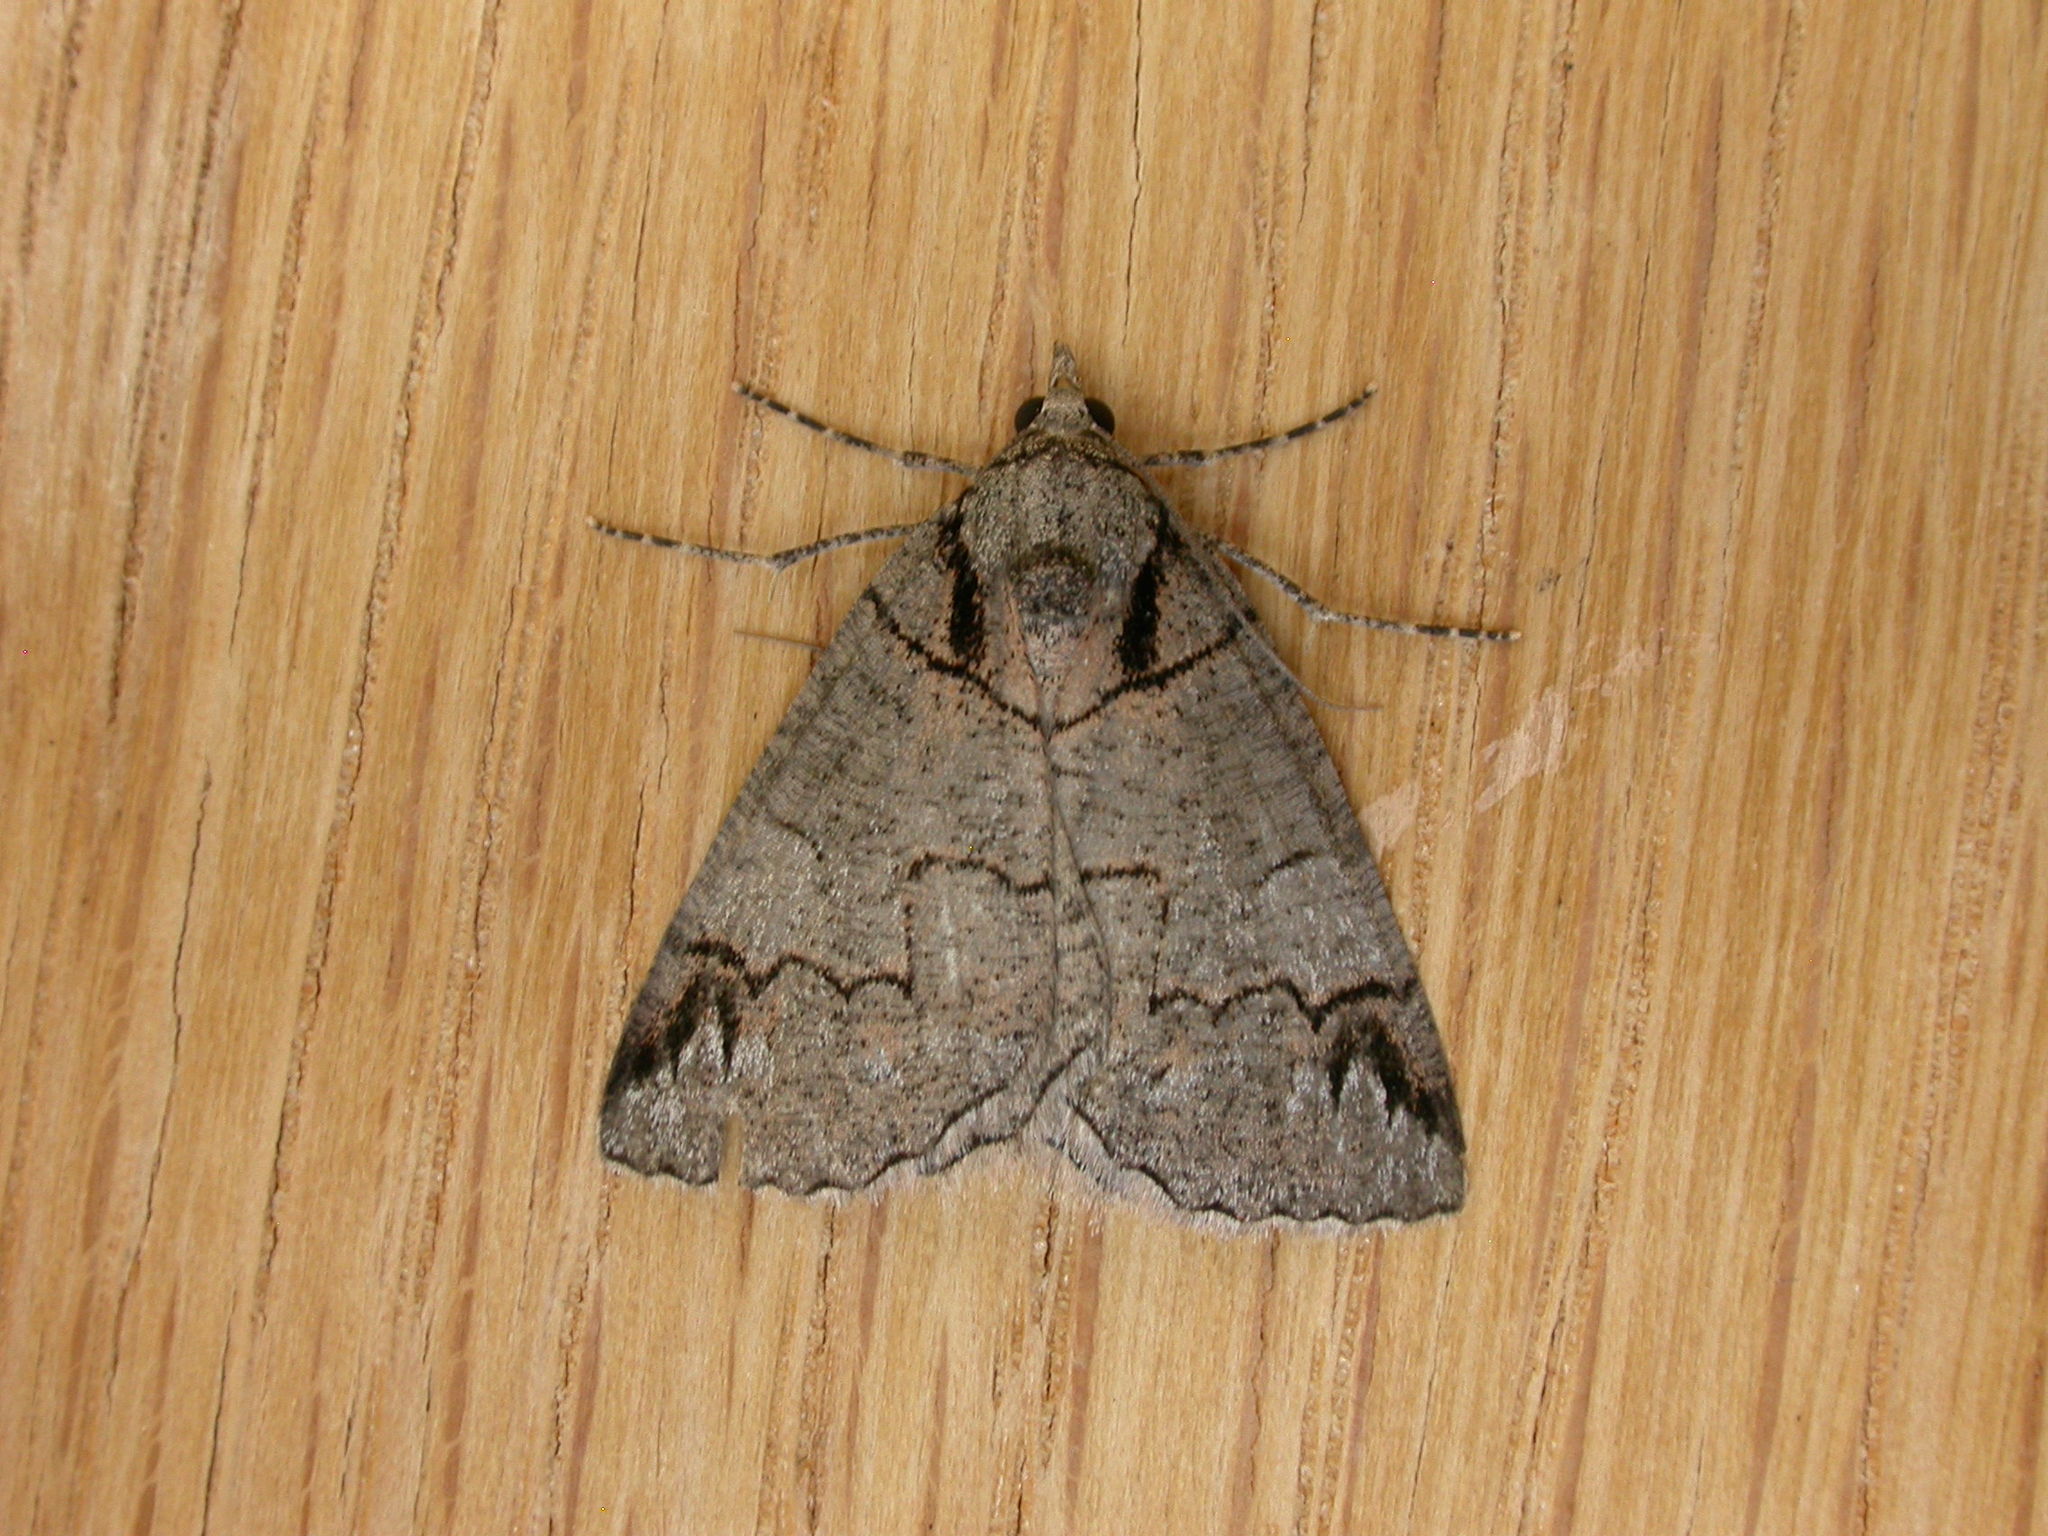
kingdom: Animalia
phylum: Arthropoda
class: Insecta
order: Lepidoptera
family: Geometridae
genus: Austroterpna
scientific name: Austroterpna paratorna
